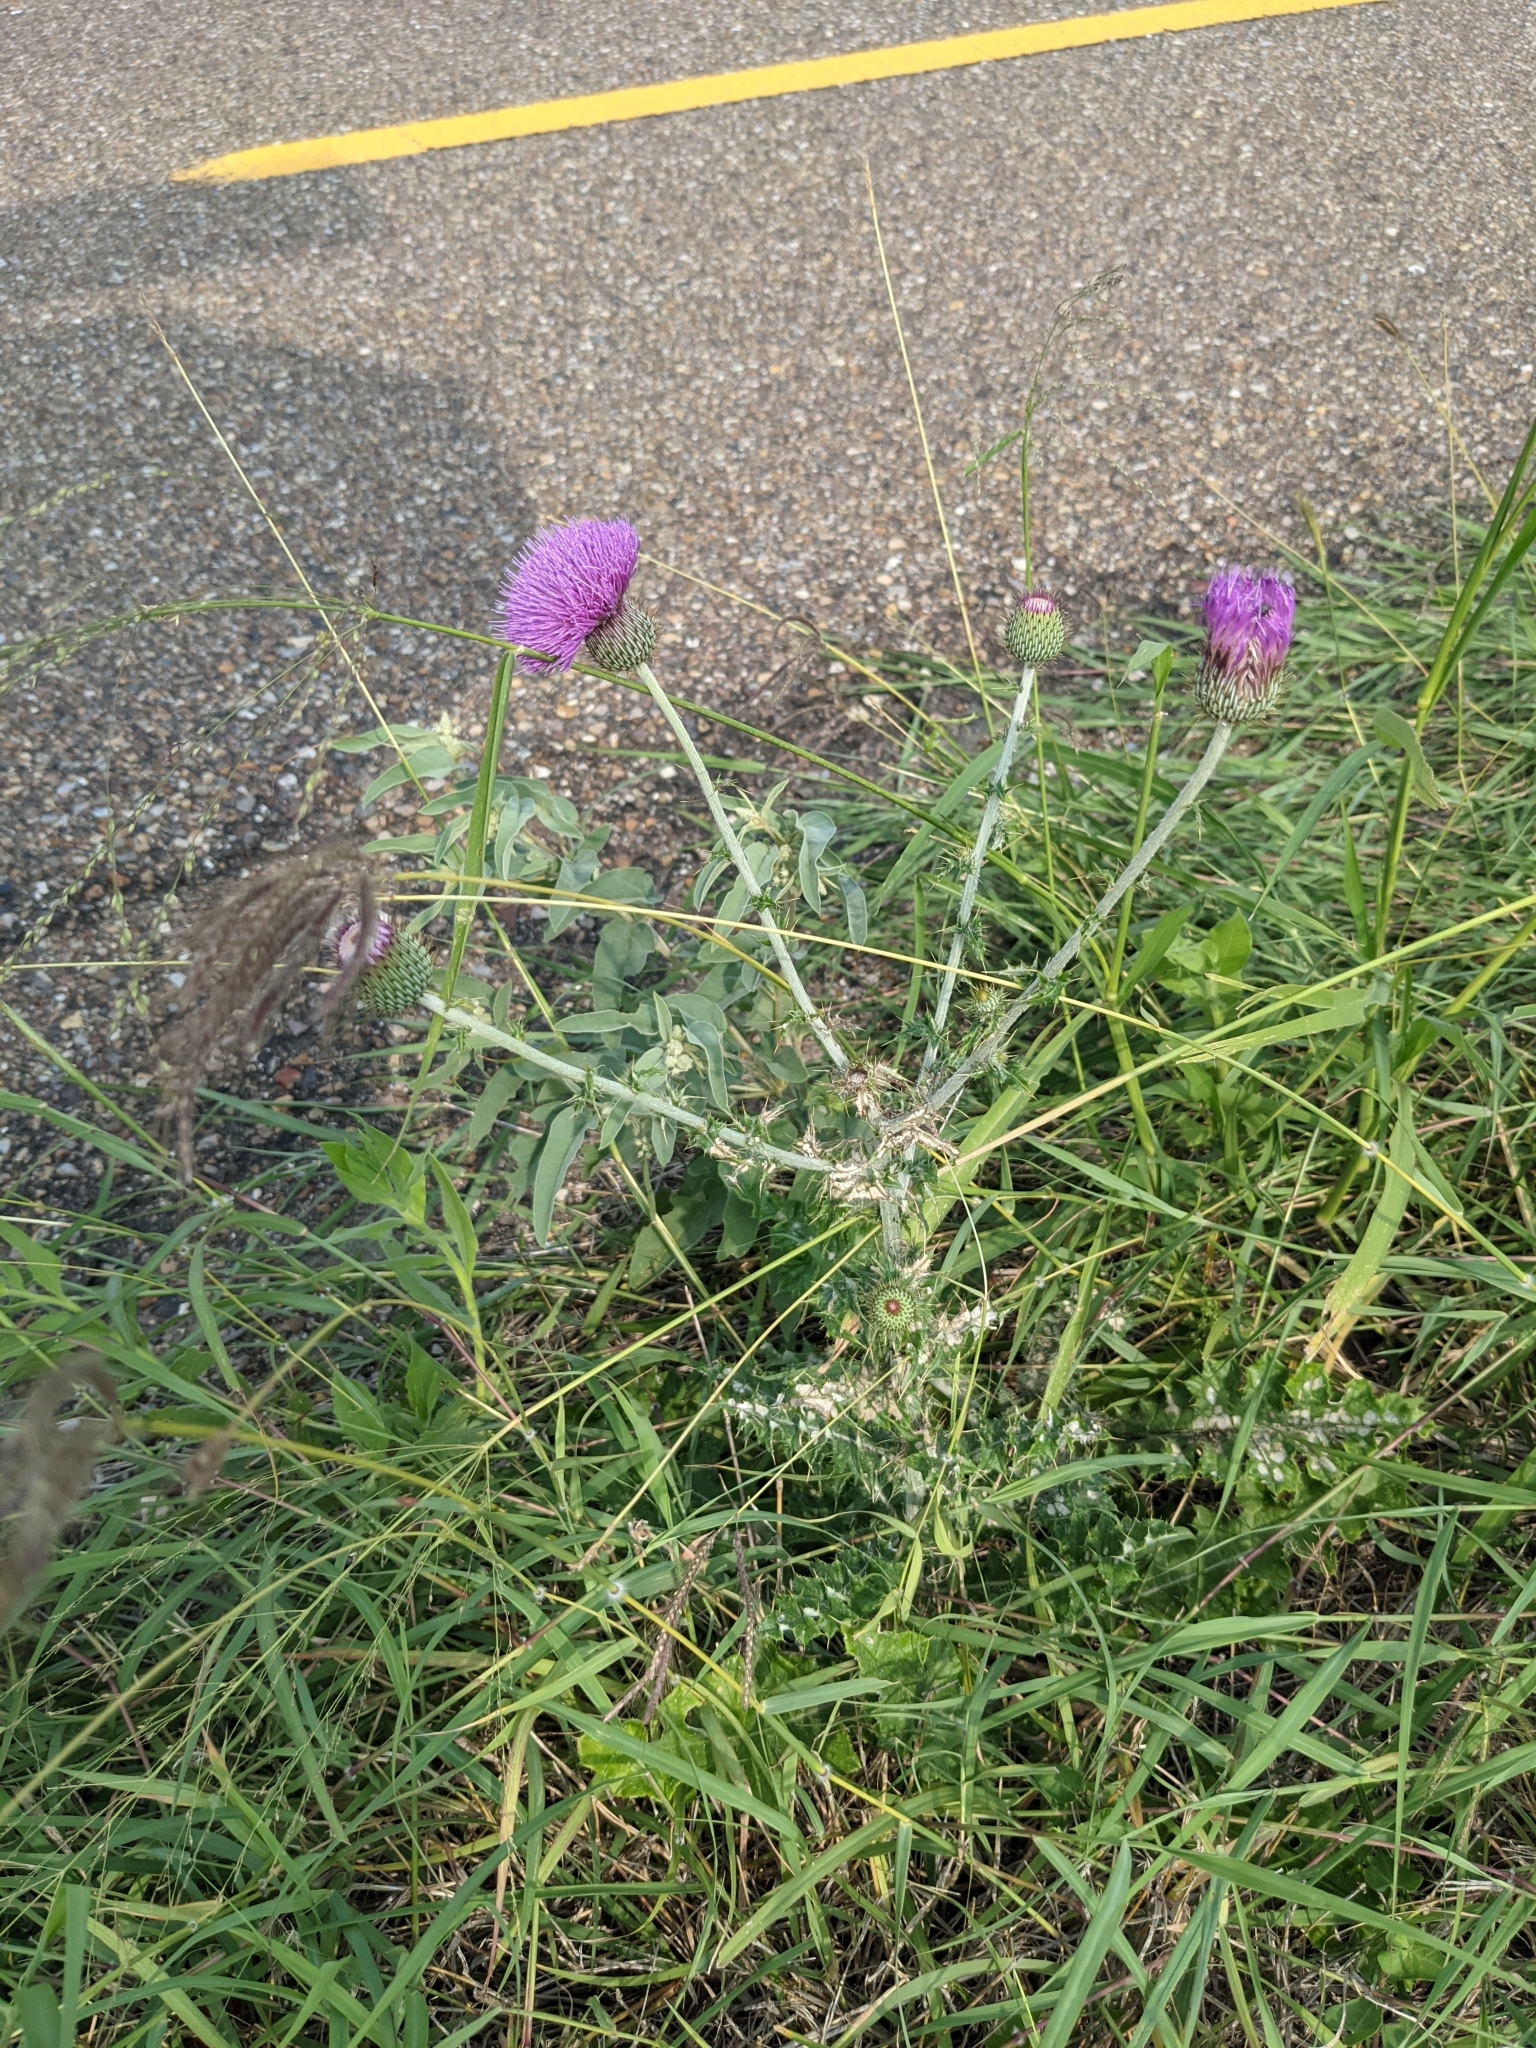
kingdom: Plantae
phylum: Tracheophyta
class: Magnoliopsida
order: Asterales
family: Asteraceae
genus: Cirsium
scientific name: Cirsium texanum
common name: Texas purple thistle
